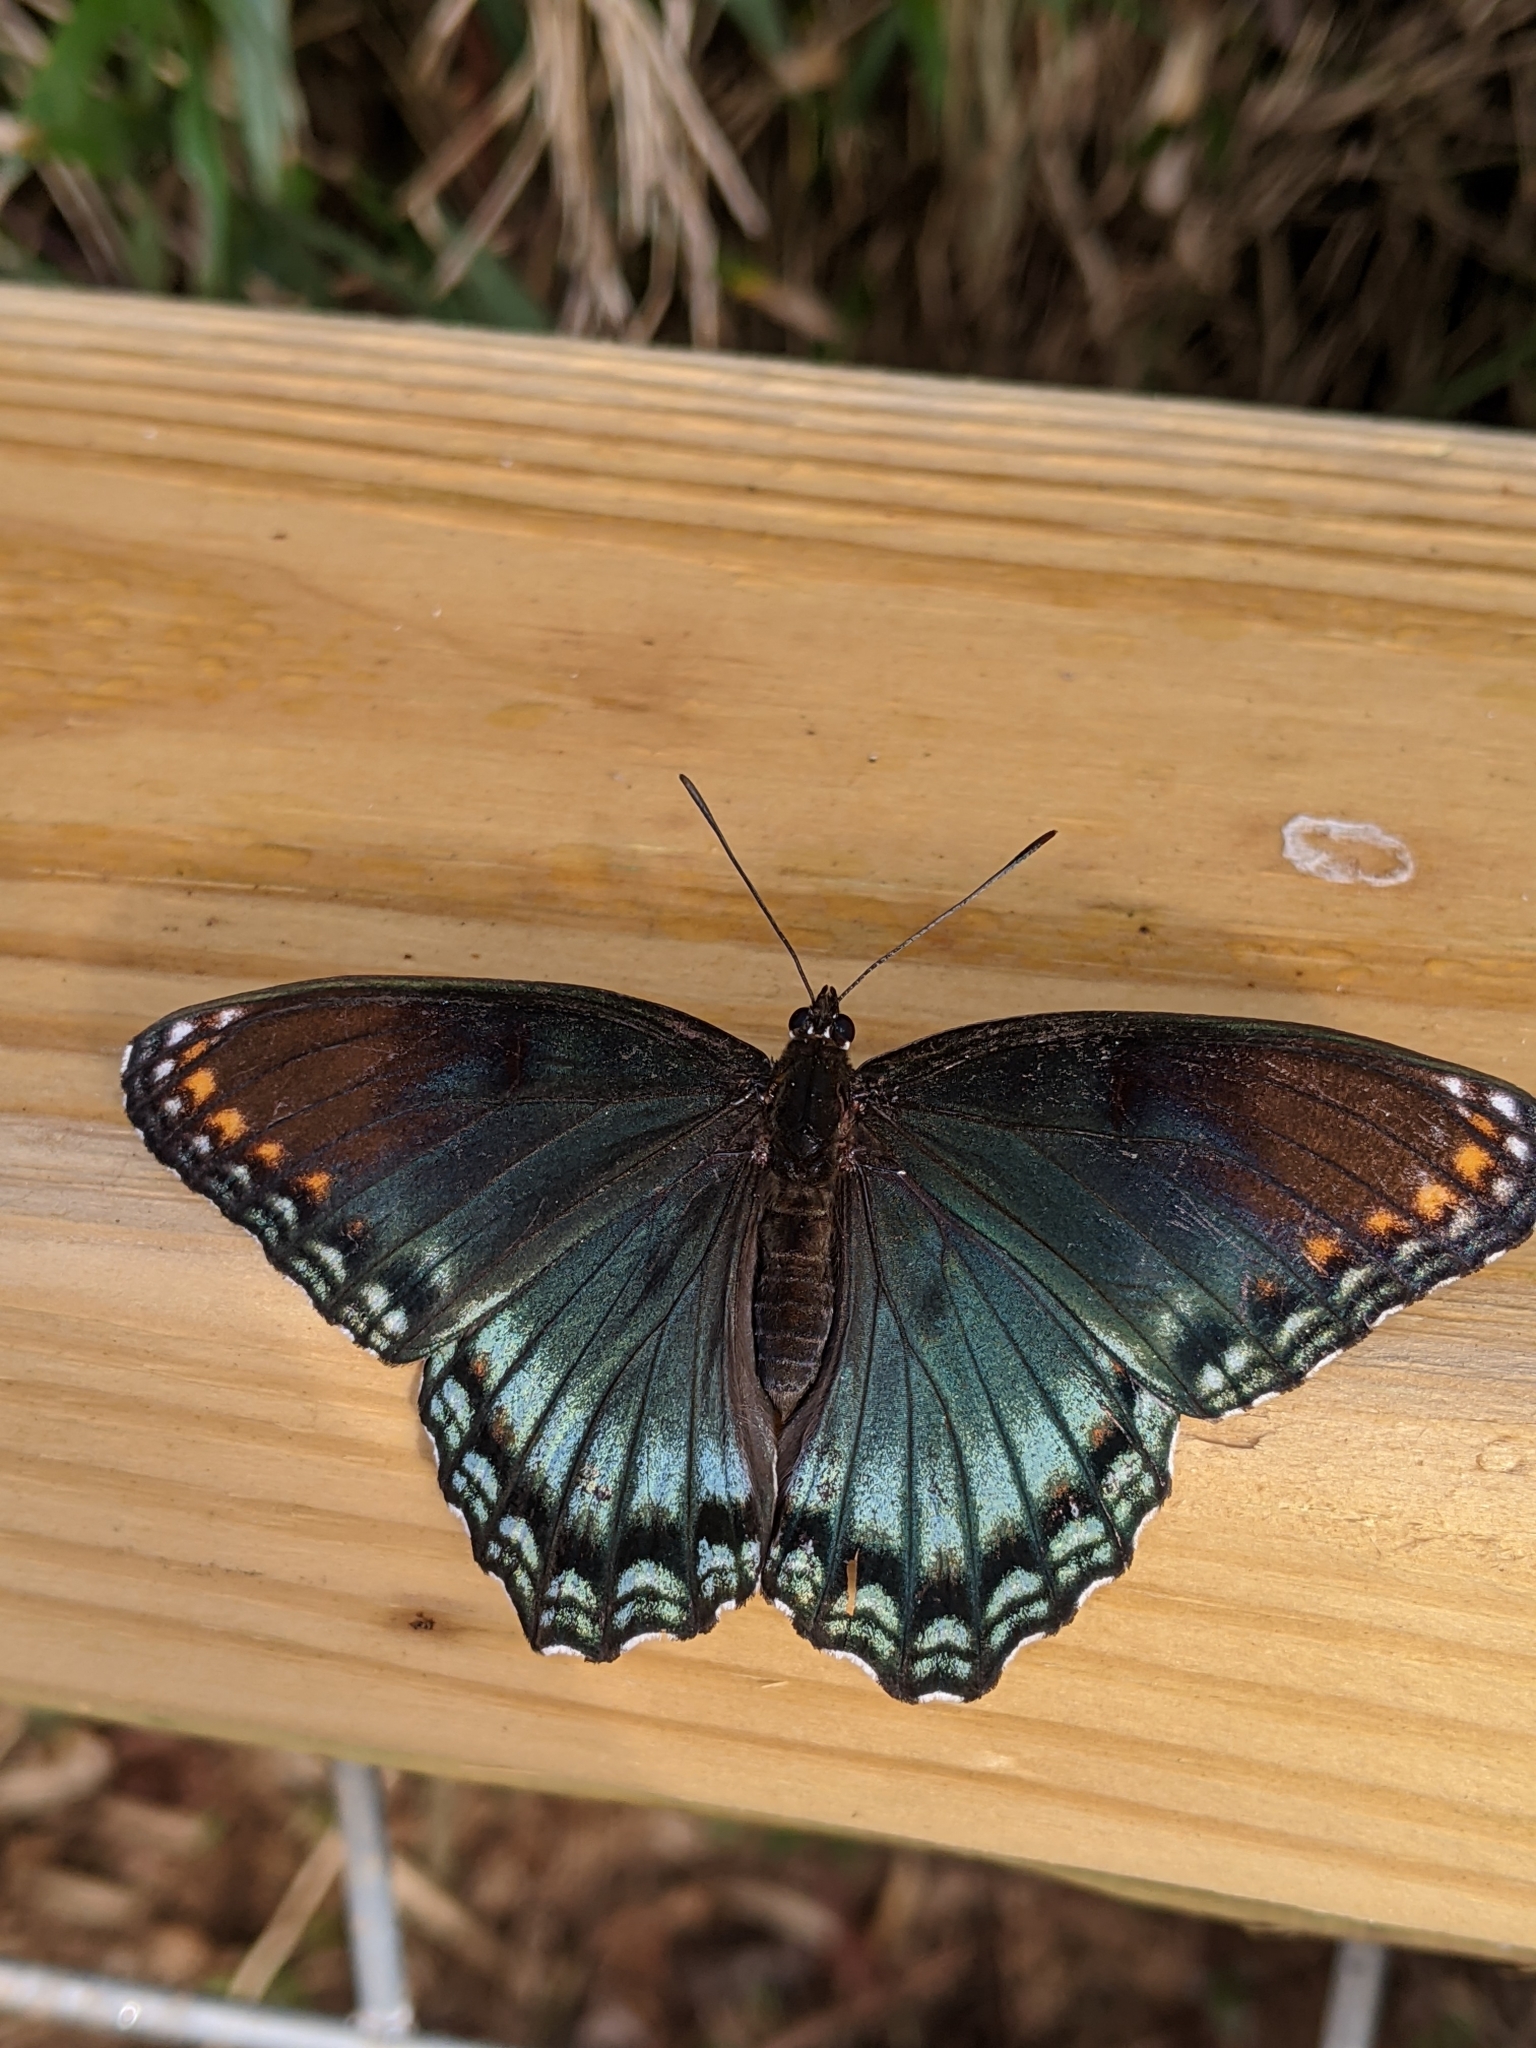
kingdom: Animalia
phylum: Arthropoda
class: Insecta
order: Lepidoptera
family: Nymphalidae
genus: Limenitis
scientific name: Limenitis astyanax
